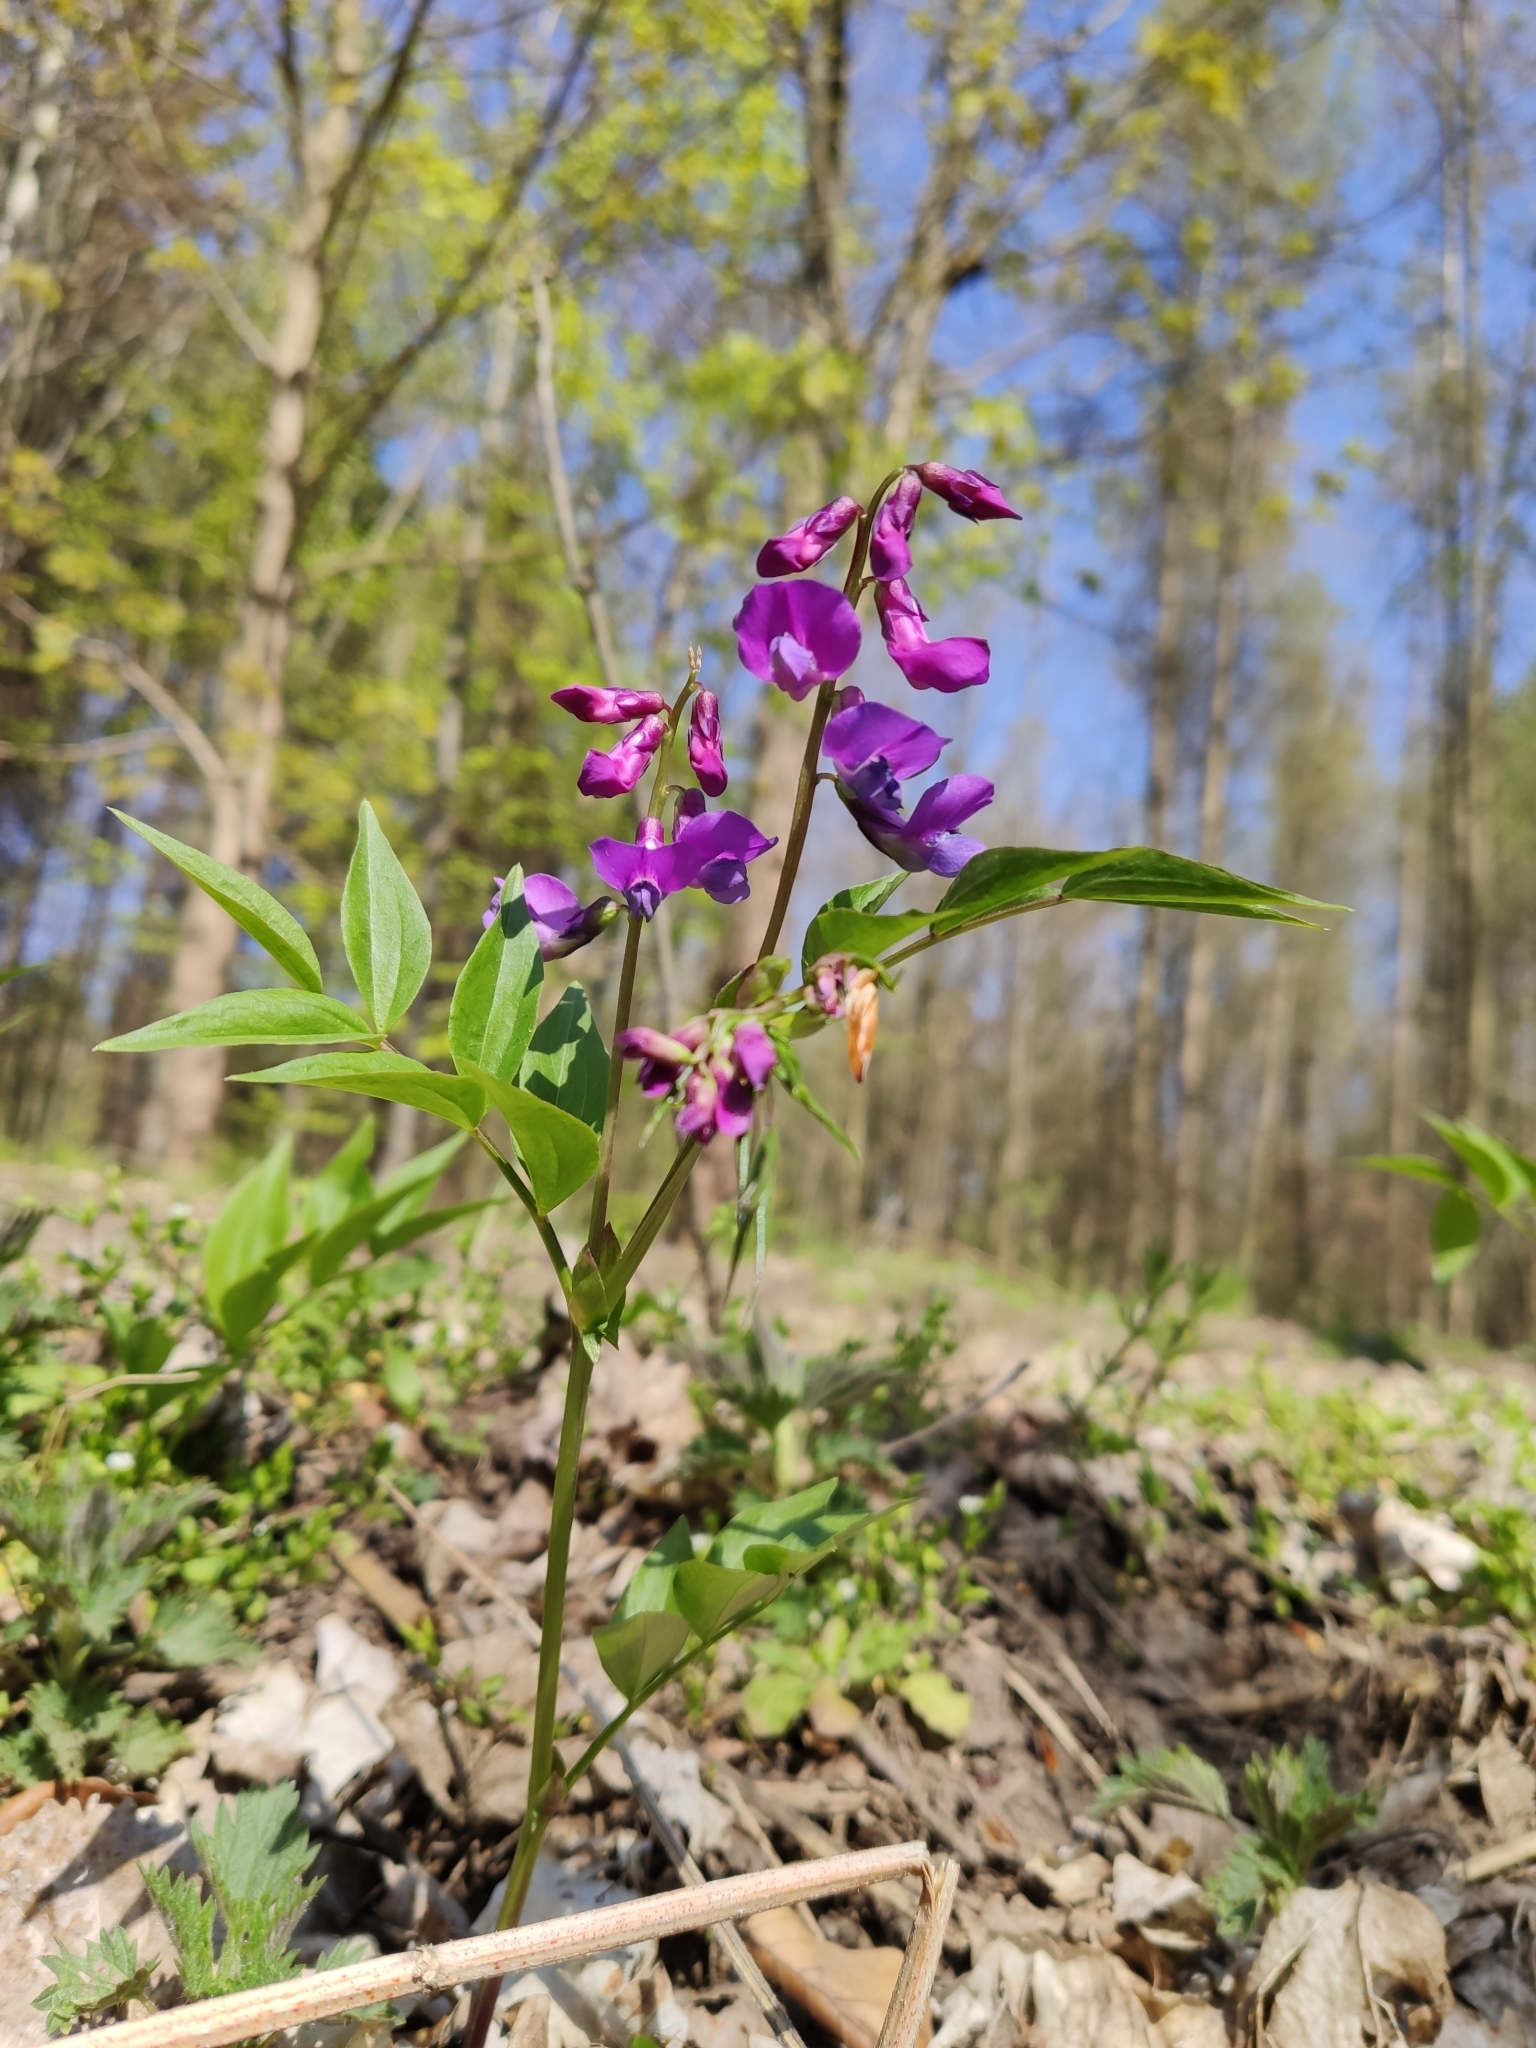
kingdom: Plantae
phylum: Tracheophyta
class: Magnoliopsida
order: Fabales
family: Fabaceae
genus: Lathyrus
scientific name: Lathyrus vernus
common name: Spring pea
